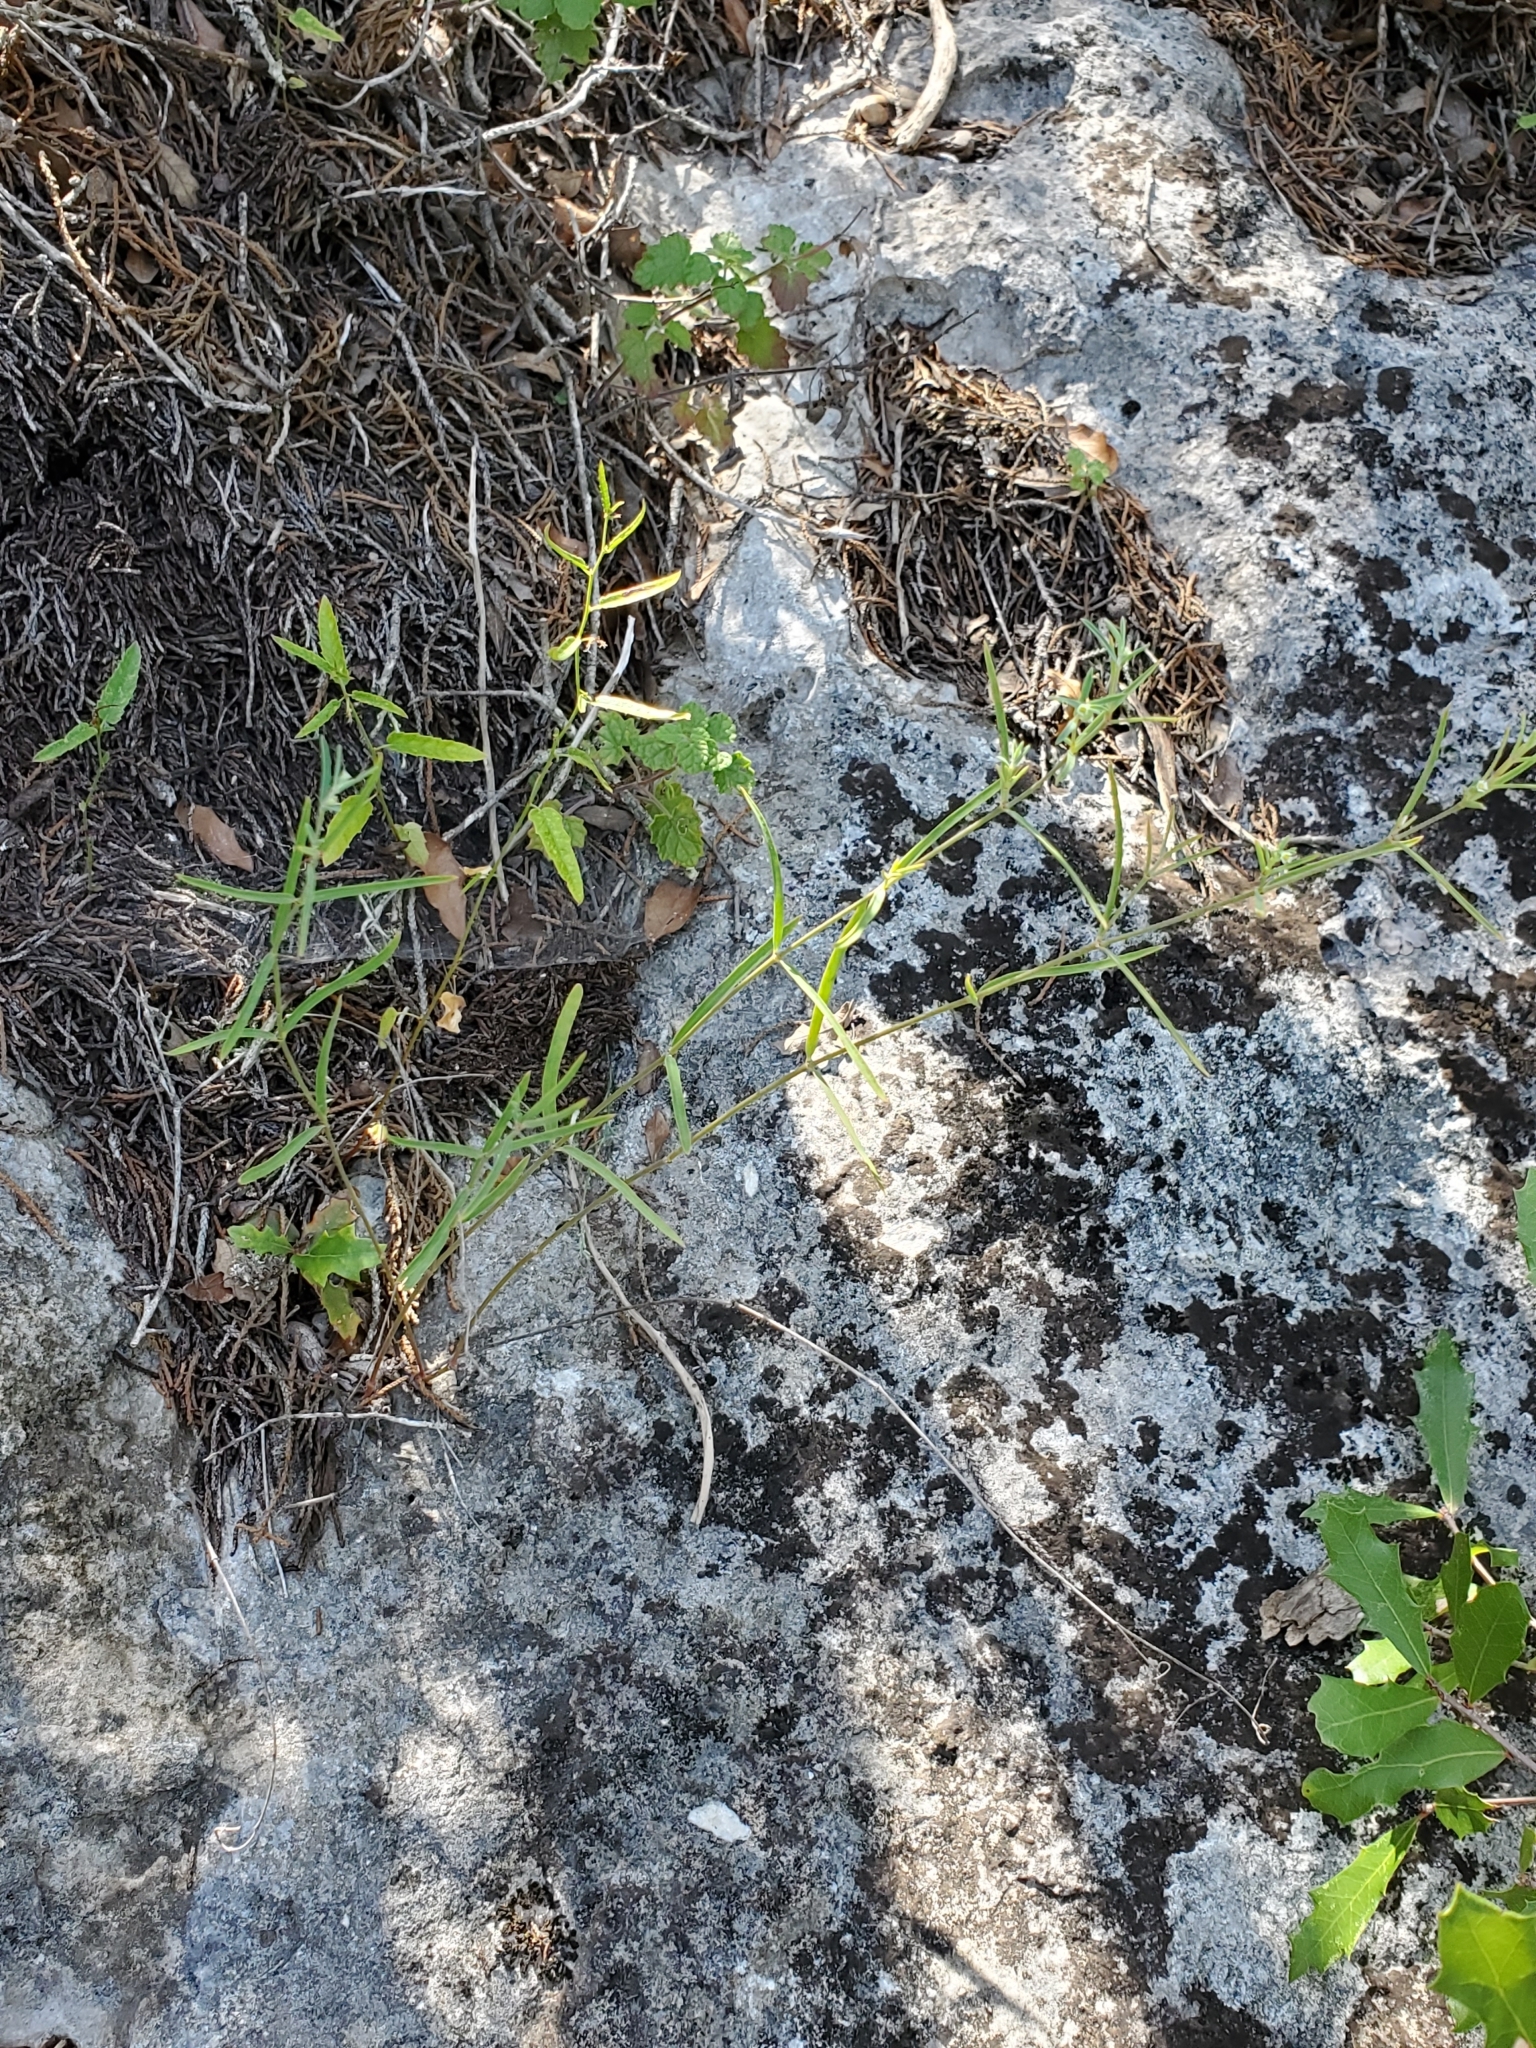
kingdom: Plantae
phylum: Tracheophyta
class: Magnoliopsida
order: Malpighiales
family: Euphorbiaceae
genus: Euphorbia
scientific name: Euphorbia angusta
